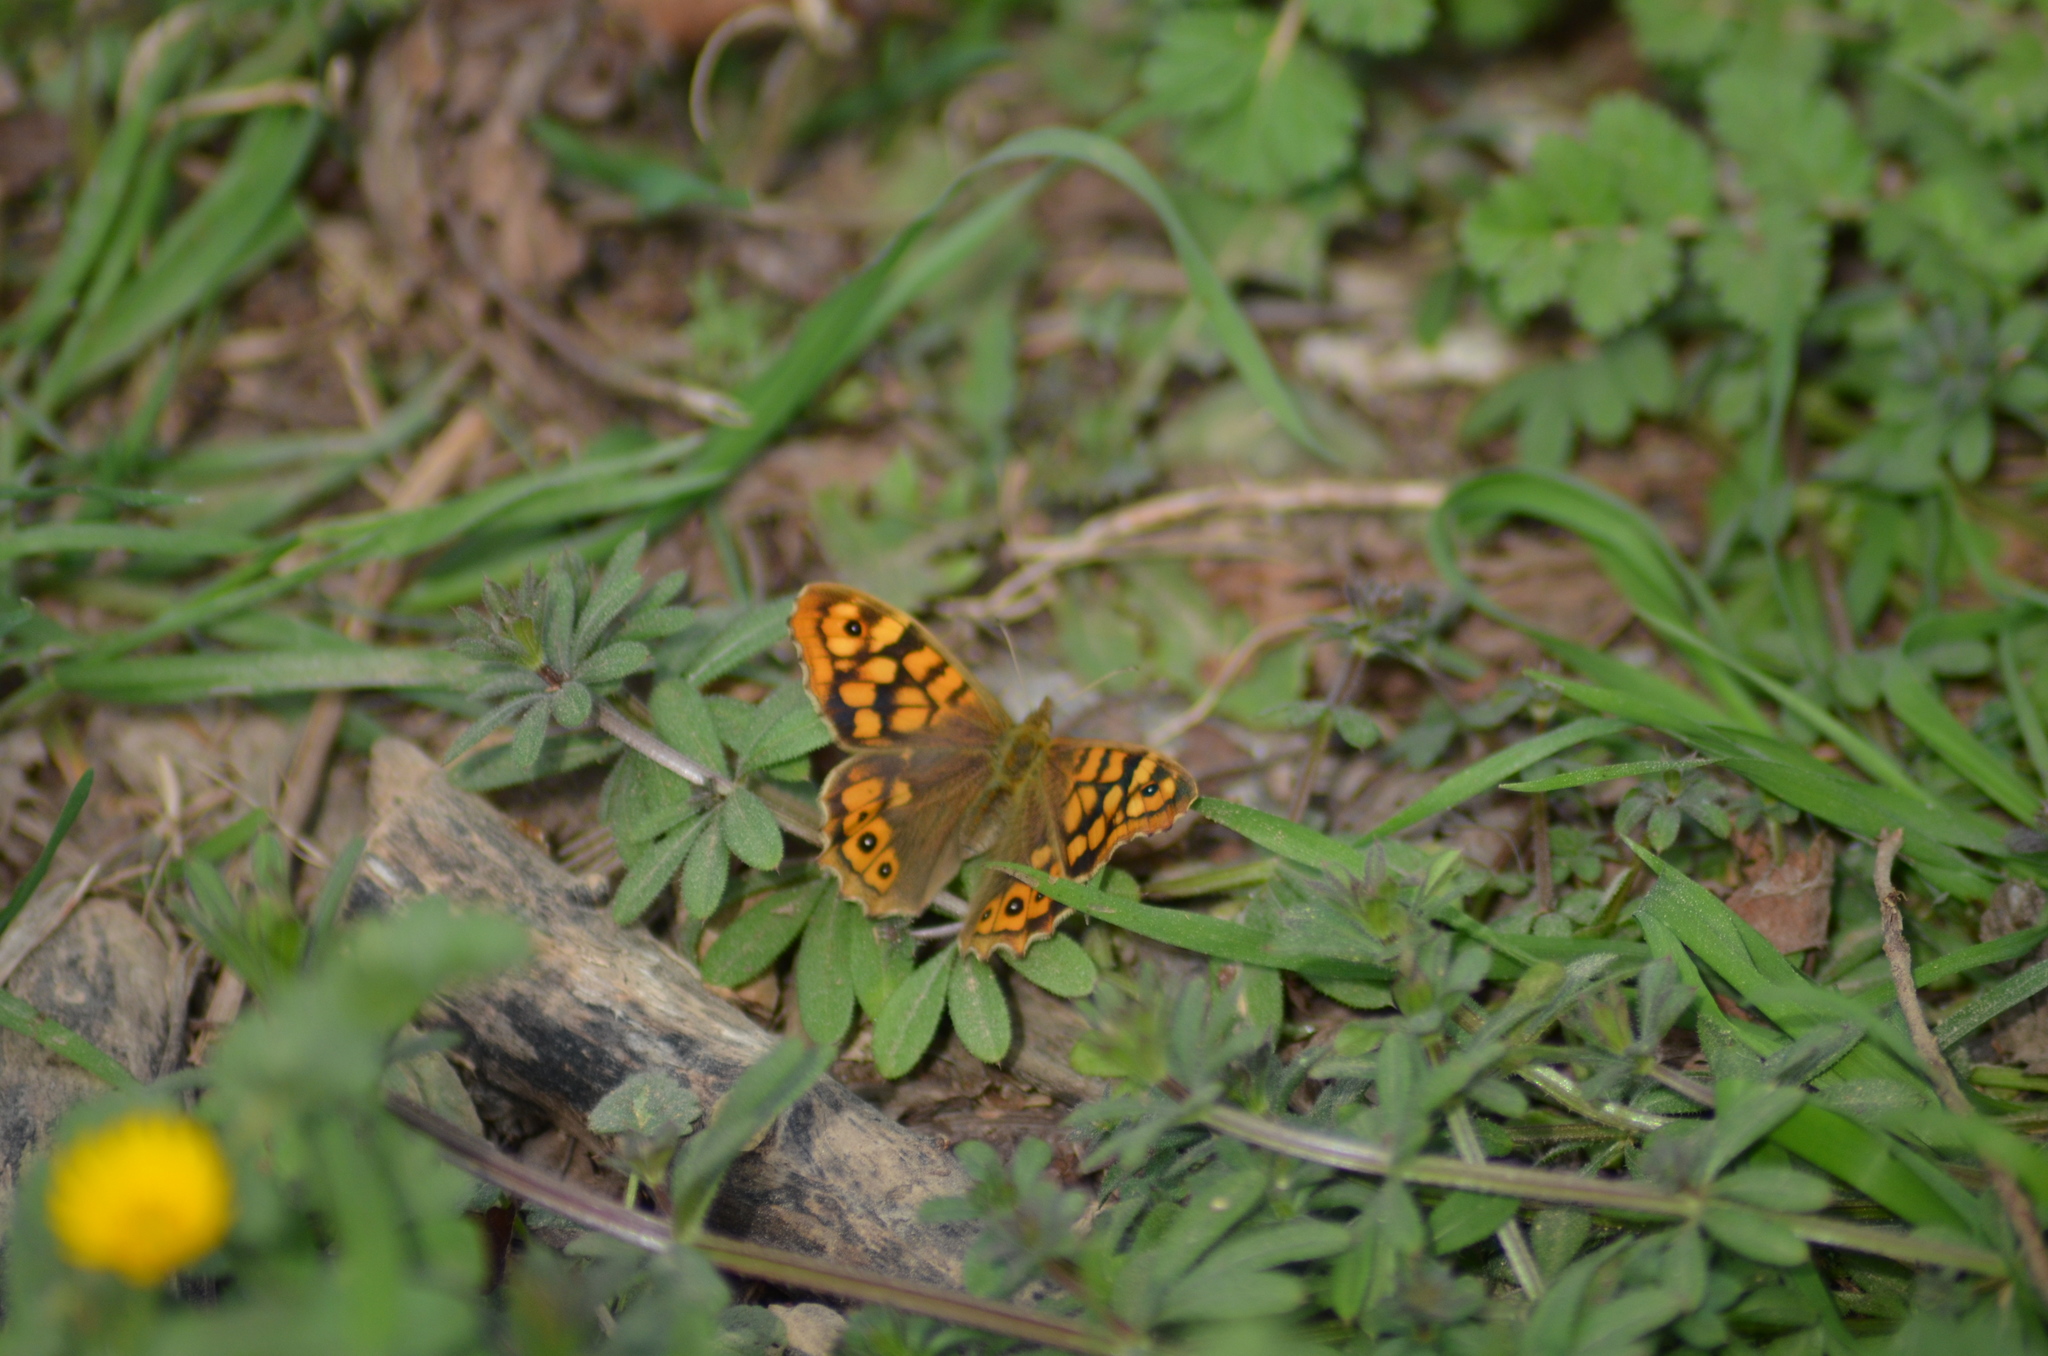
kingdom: Animalia
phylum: Arthropoda
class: Insecta
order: Lepidoptera
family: Nymphalidae
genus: Pararge
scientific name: Pararge aegeria
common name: Speckled wood
